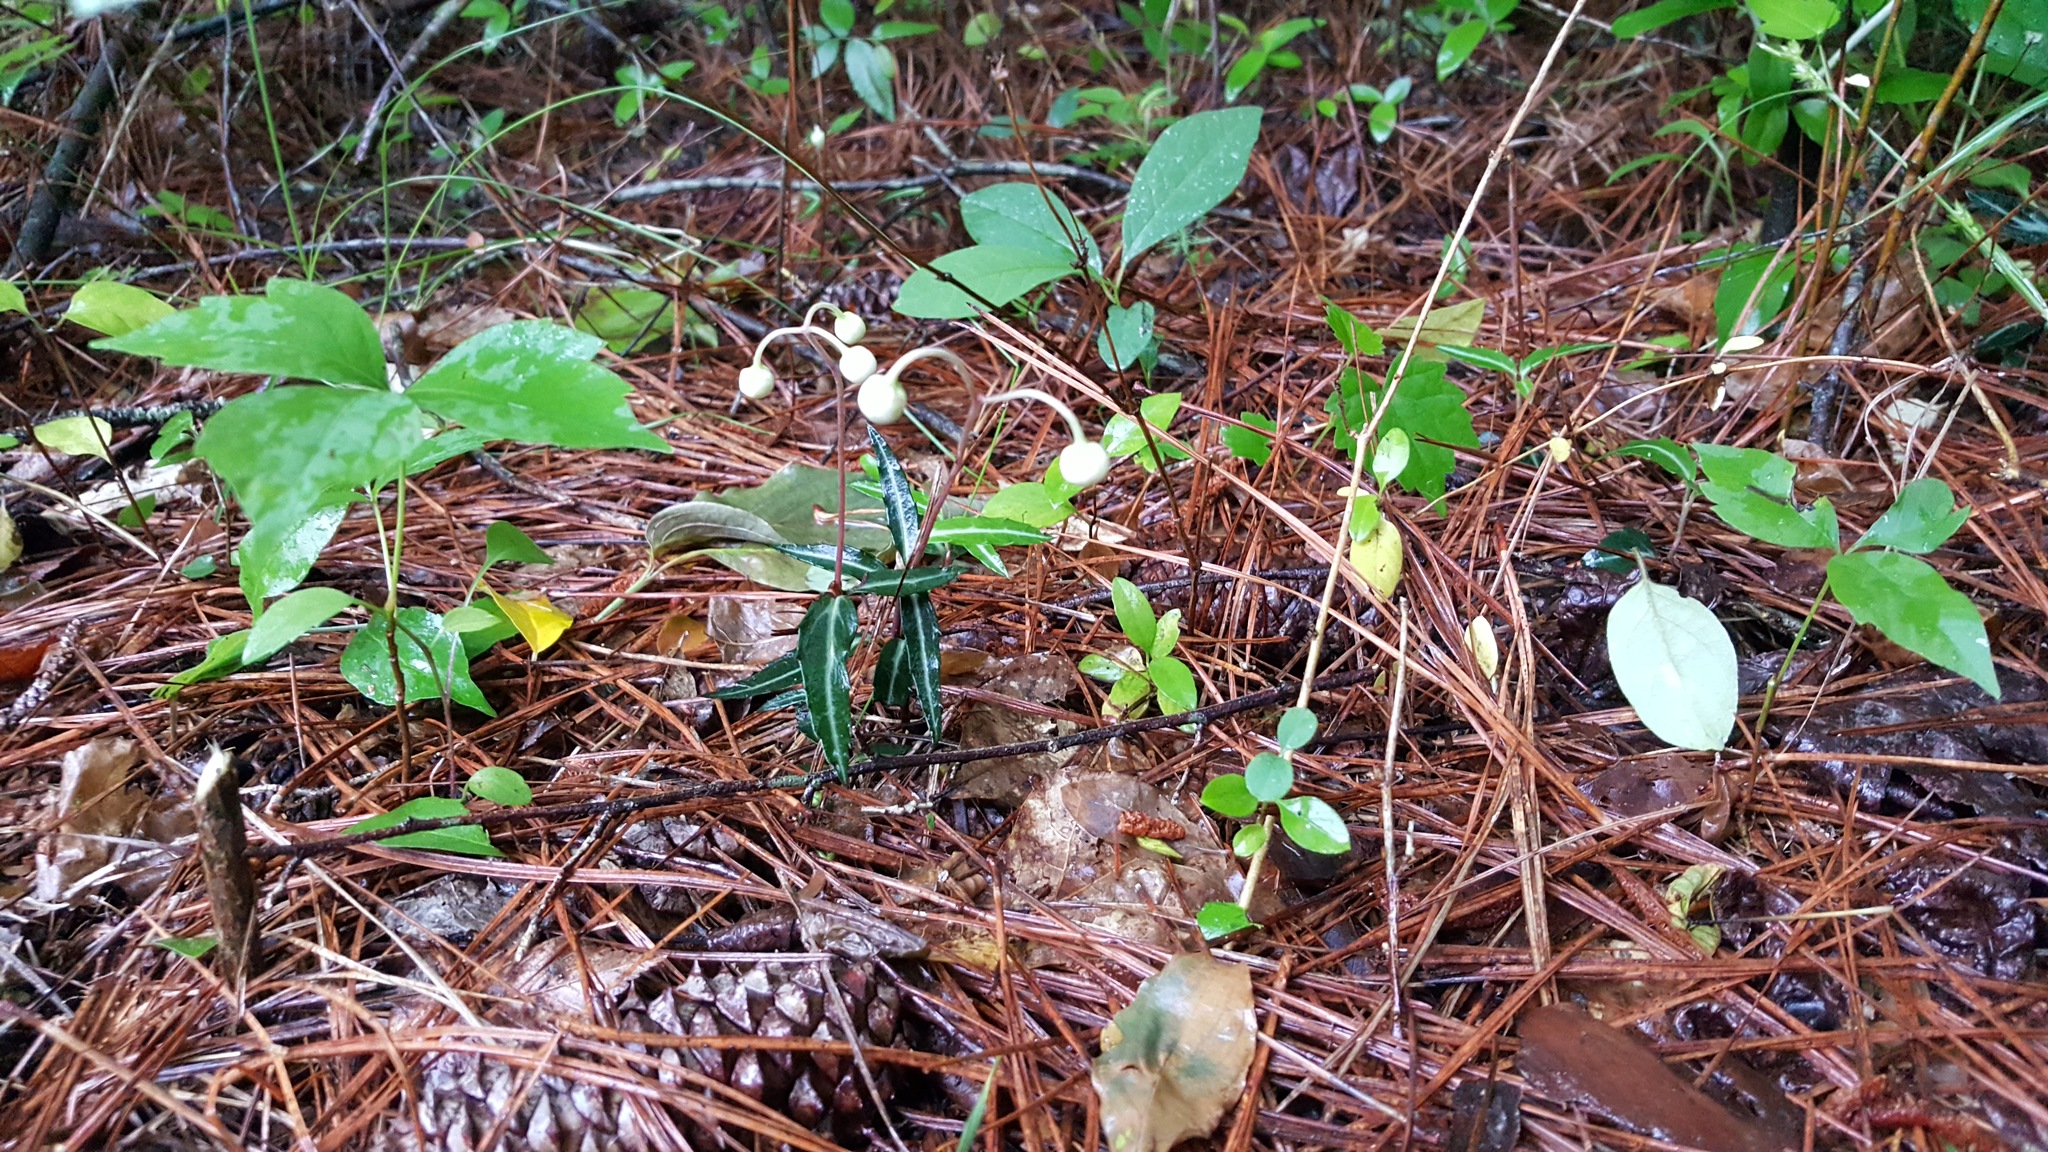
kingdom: Plantae
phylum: Tracheophyta
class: Magnoliopsida
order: Ericales
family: Ericaceae
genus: Chimaphila
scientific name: Chimaphila maculata
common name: Spotted pipsissewa
